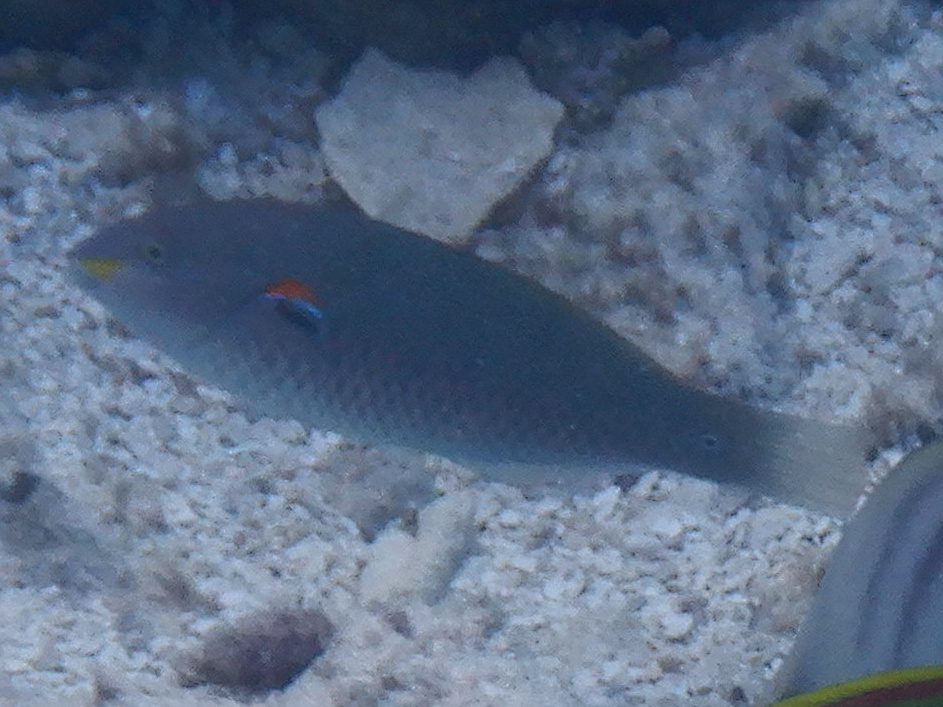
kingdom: Animalia
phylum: Chordata
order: Perciformes
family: Labridae
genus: Stethojulis
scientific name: Stethojulis bandanensis
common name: Red shoulder wrasse
